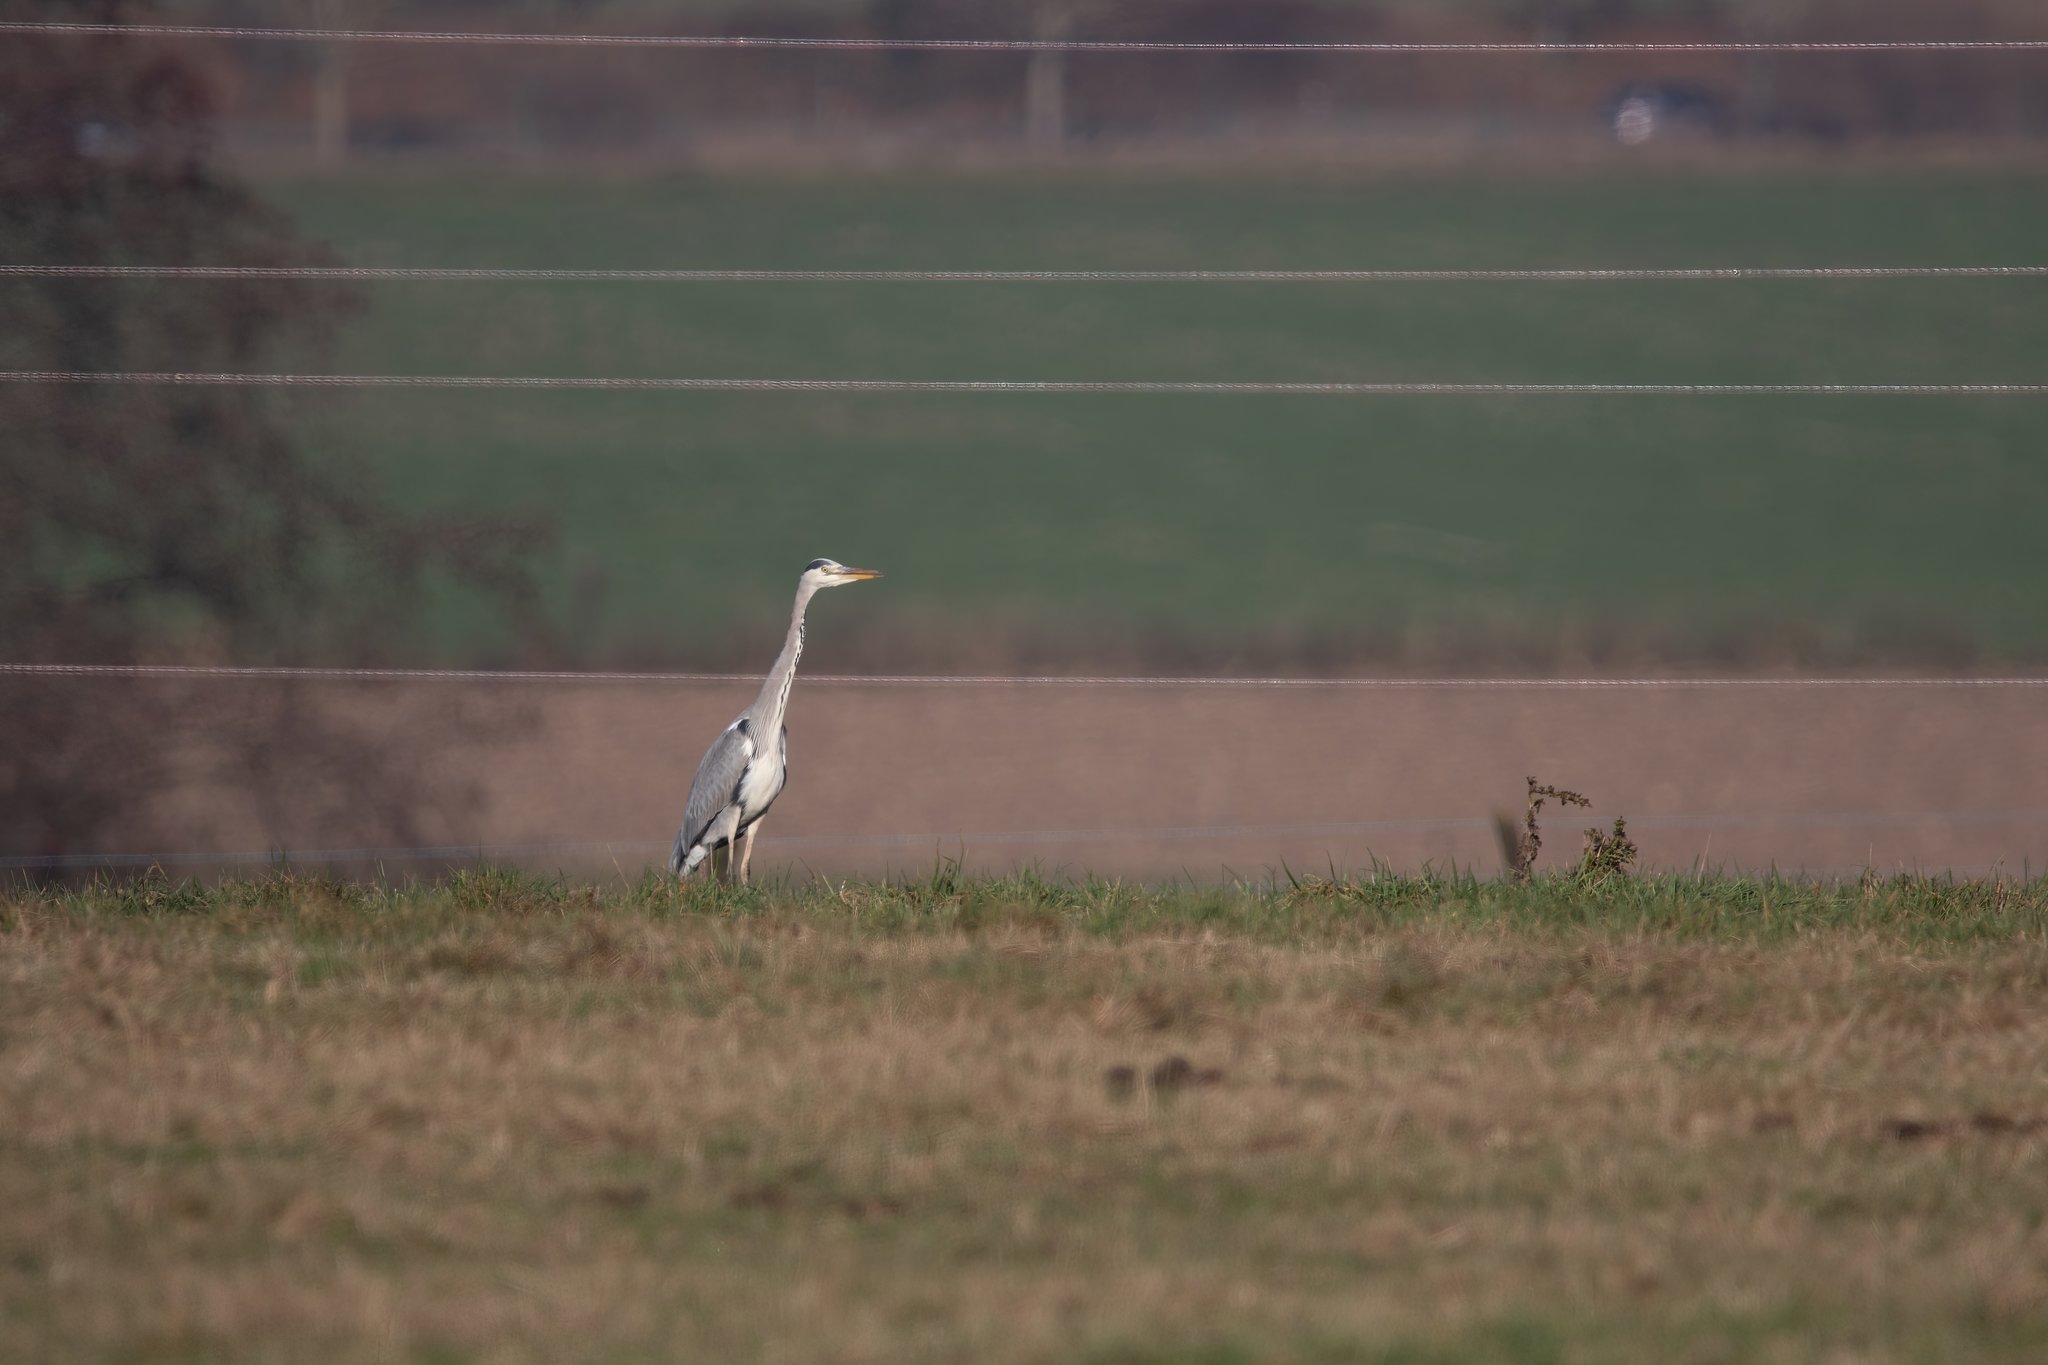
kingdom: Animalia
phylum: Chordata
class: Aves
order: Pelecaniformes
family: Ardeidae
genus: Ardea
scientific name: Ardea cinerea
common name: Grey heron
